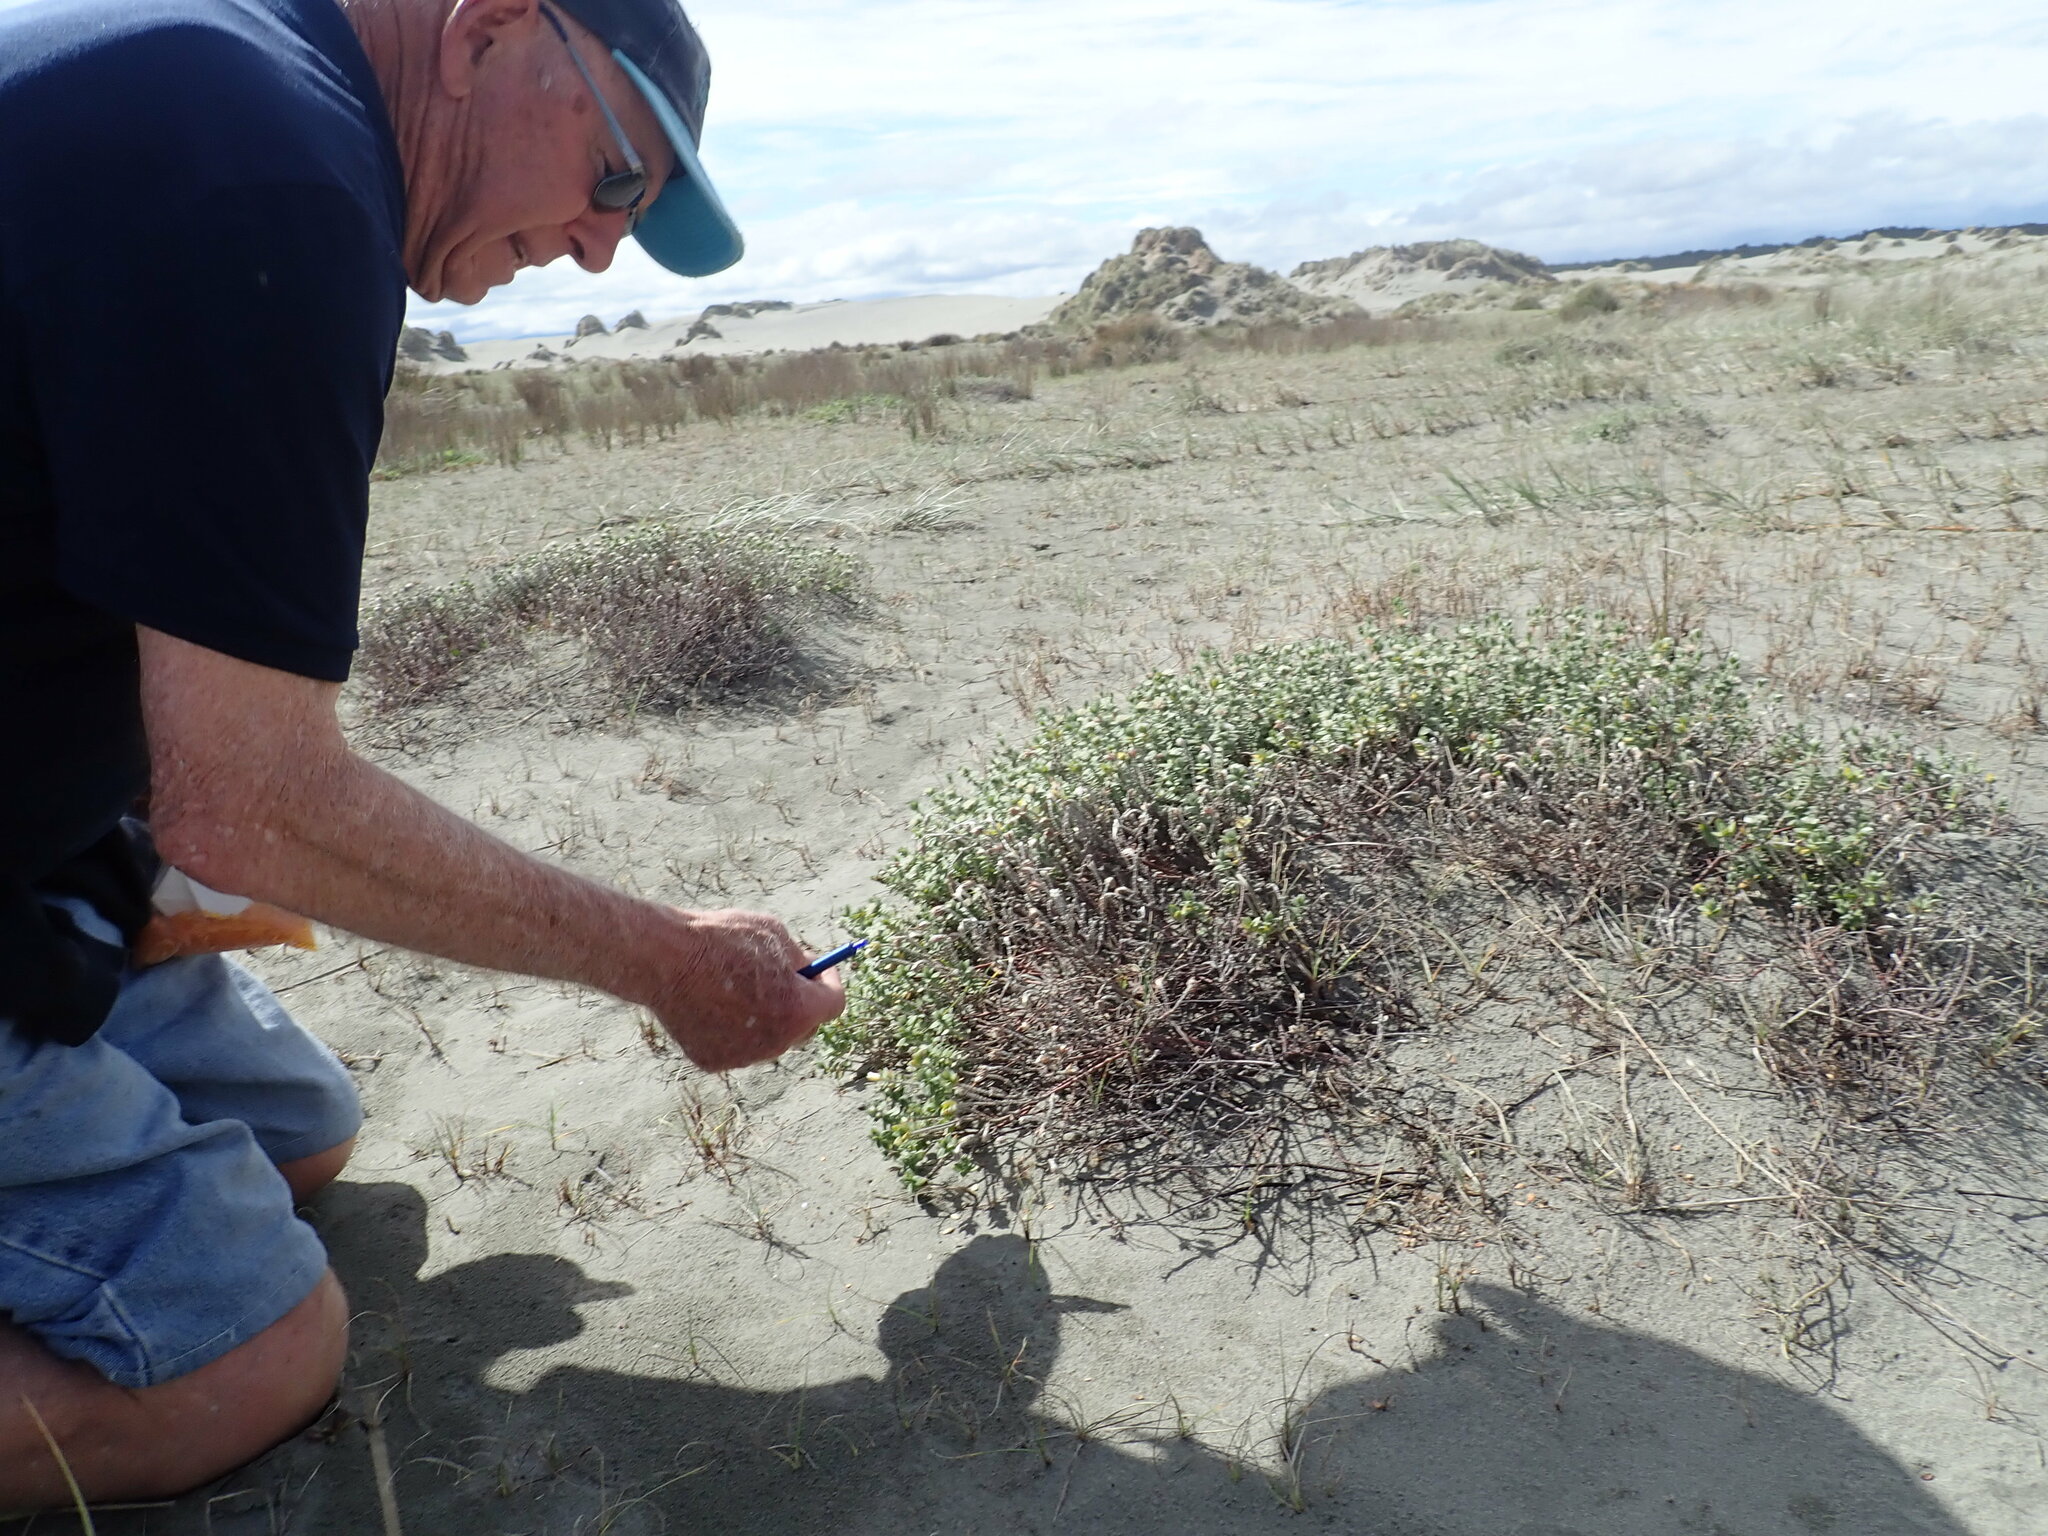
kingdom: Plantae
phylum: Tracheophyta
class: Magnoliopsida
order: Malvales
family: Thymelaeaceae
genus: Pimelea
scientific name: Pimelea villosa
